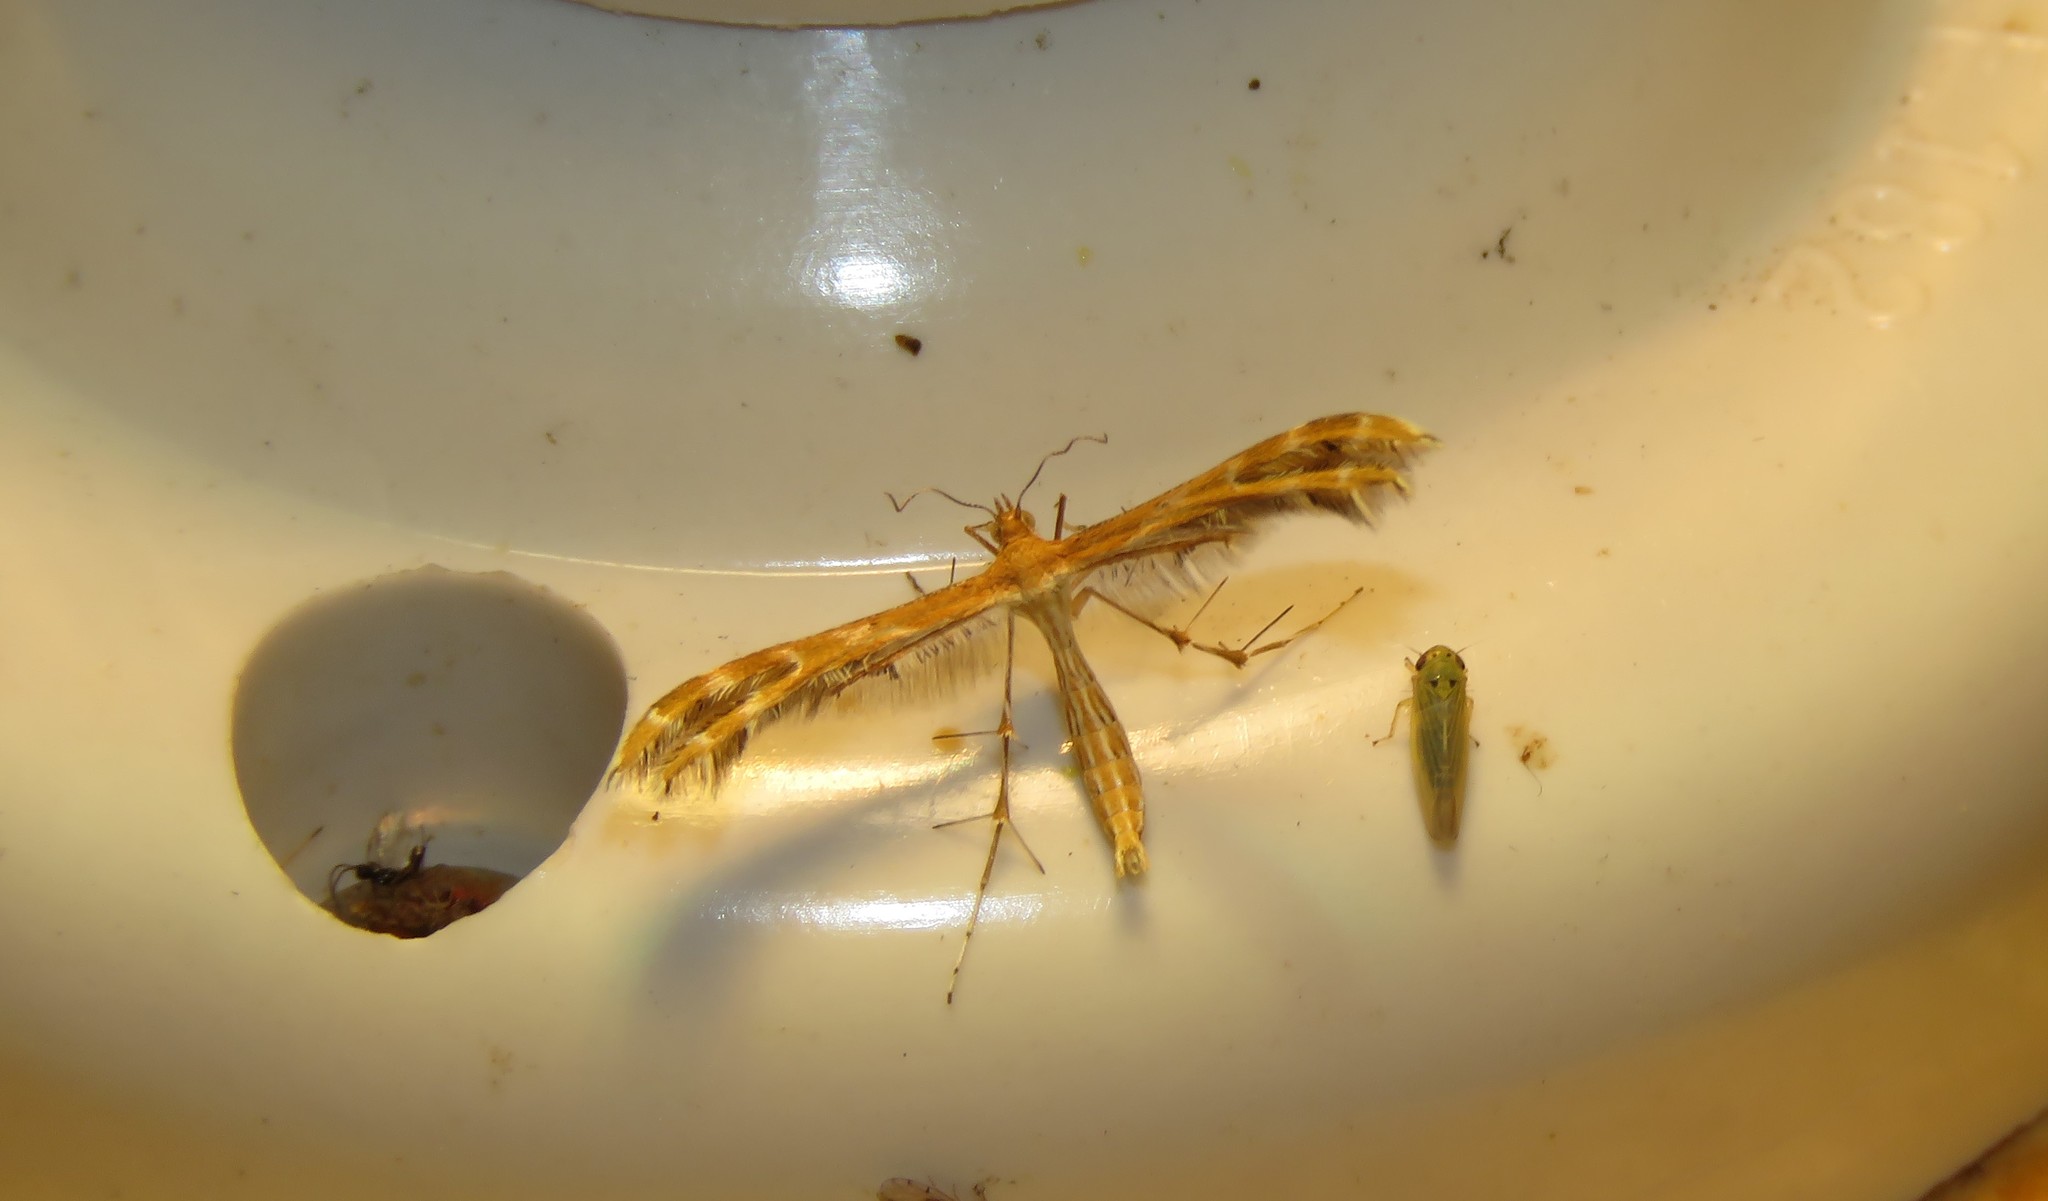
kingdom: Animalia
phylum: Arthropoda
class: Insecta
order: Lepidoptera
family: Pterophoridae
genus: Sphenarches
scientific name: Sphenarches anisodactylus
